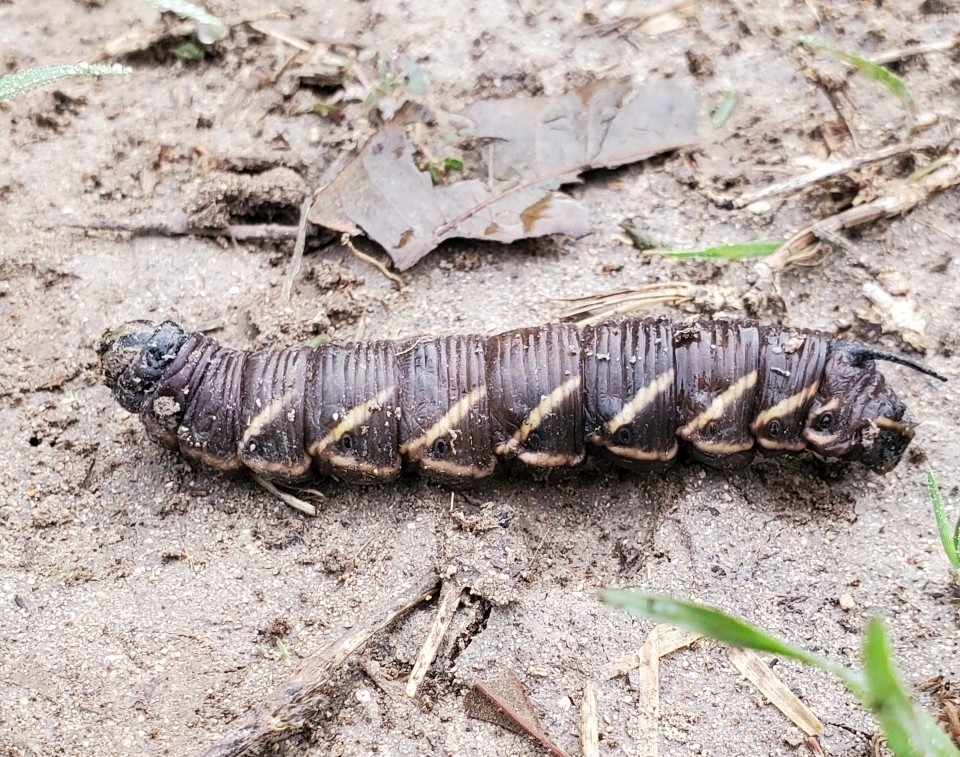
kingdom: Animalia
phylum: Arthropoda
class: Insecta
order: Lepidoptera
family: Sphingidae
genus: Manduca
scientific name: Manduca quinquemaculatus
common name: Five-spotted hawk-moth
